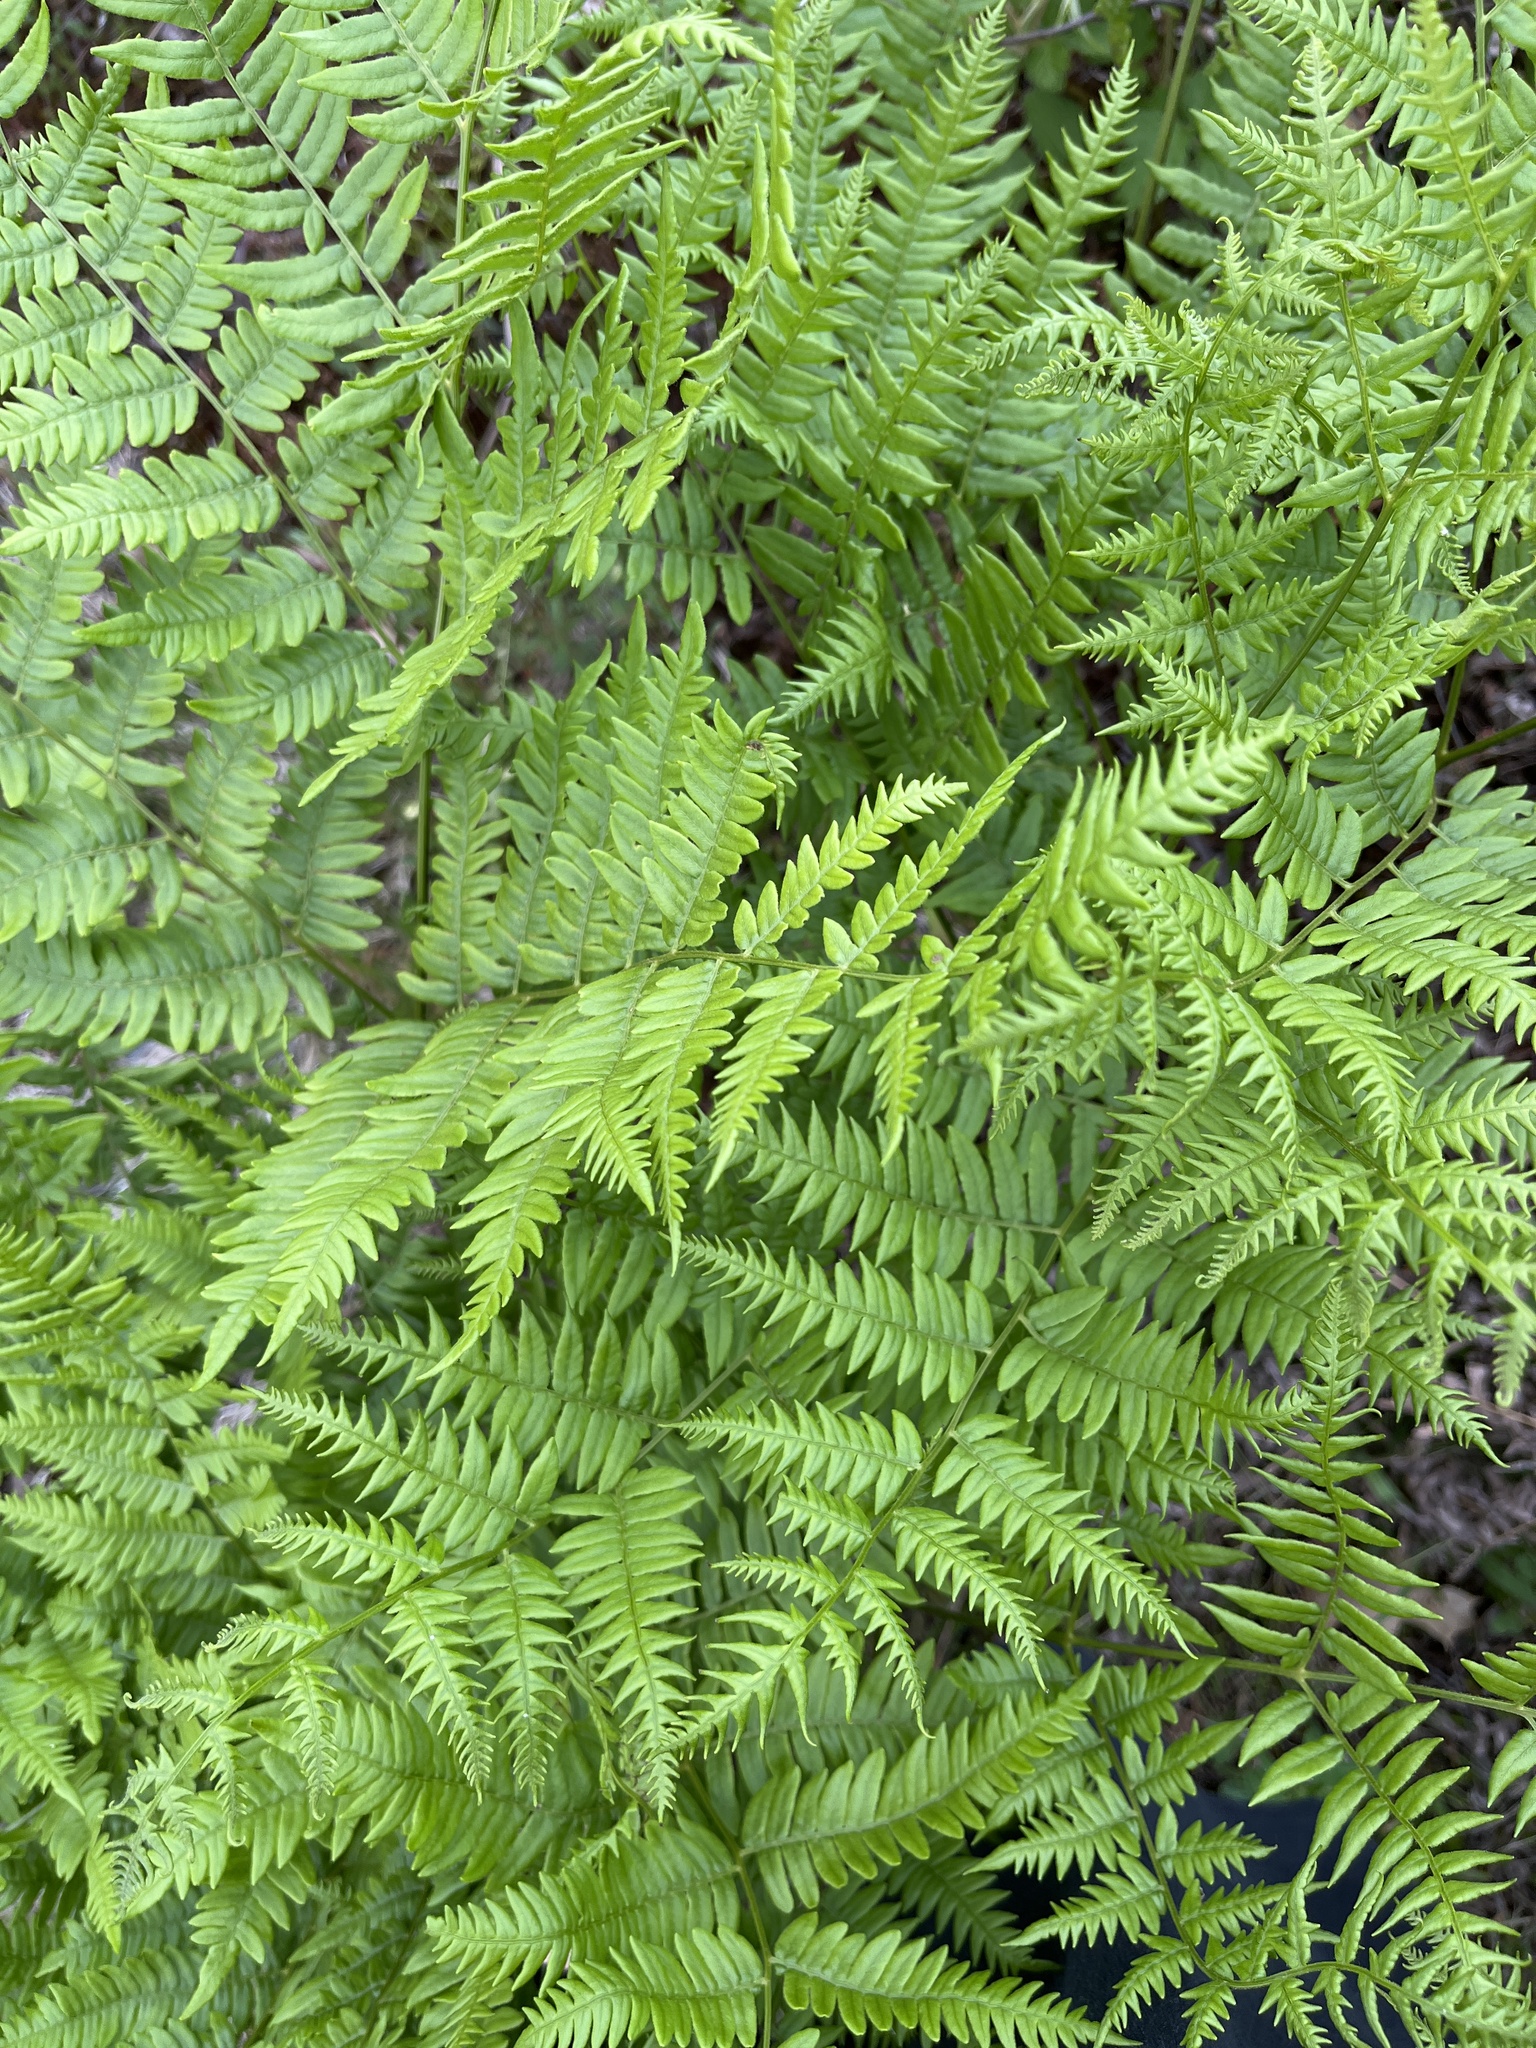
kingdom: Plantae
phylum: Tracheophyta
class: Polypodiopsida
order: Polypodiales
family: Dennstaedtiaceae
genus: Pteridium
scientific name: Pteridium aquilinum
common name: Bracken
